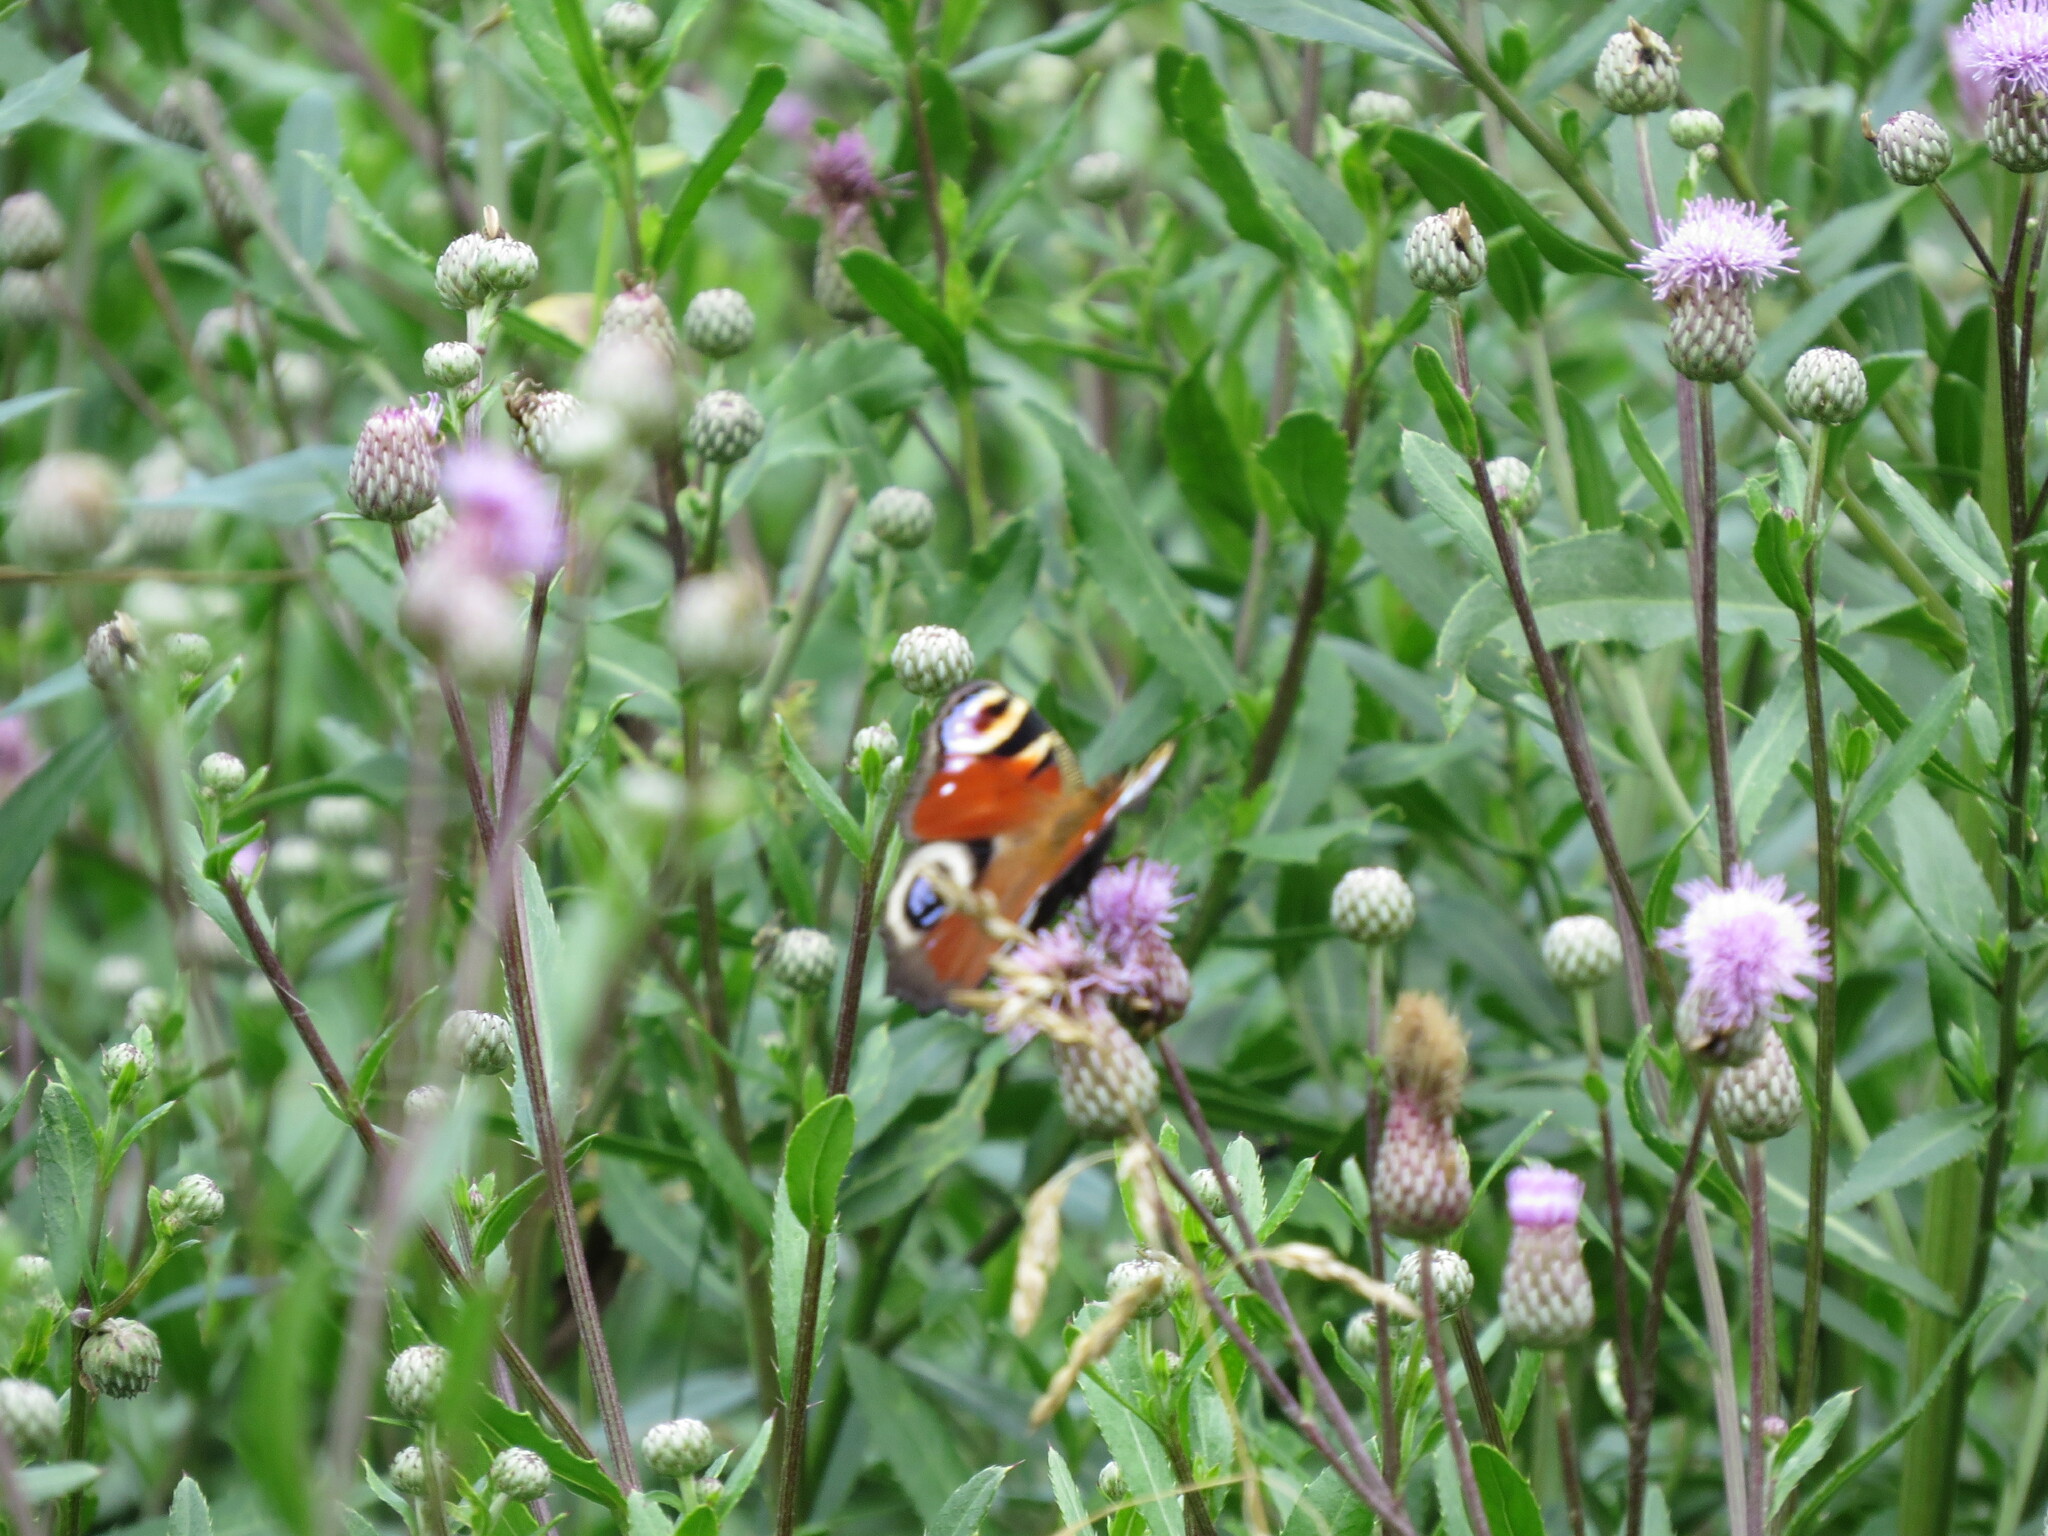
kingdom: Animalia
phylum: Arthropoda
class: Insecta
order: Lepidoptera
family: Nymphalidae
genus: Aglais
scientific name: Aglais io
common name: Peacock
